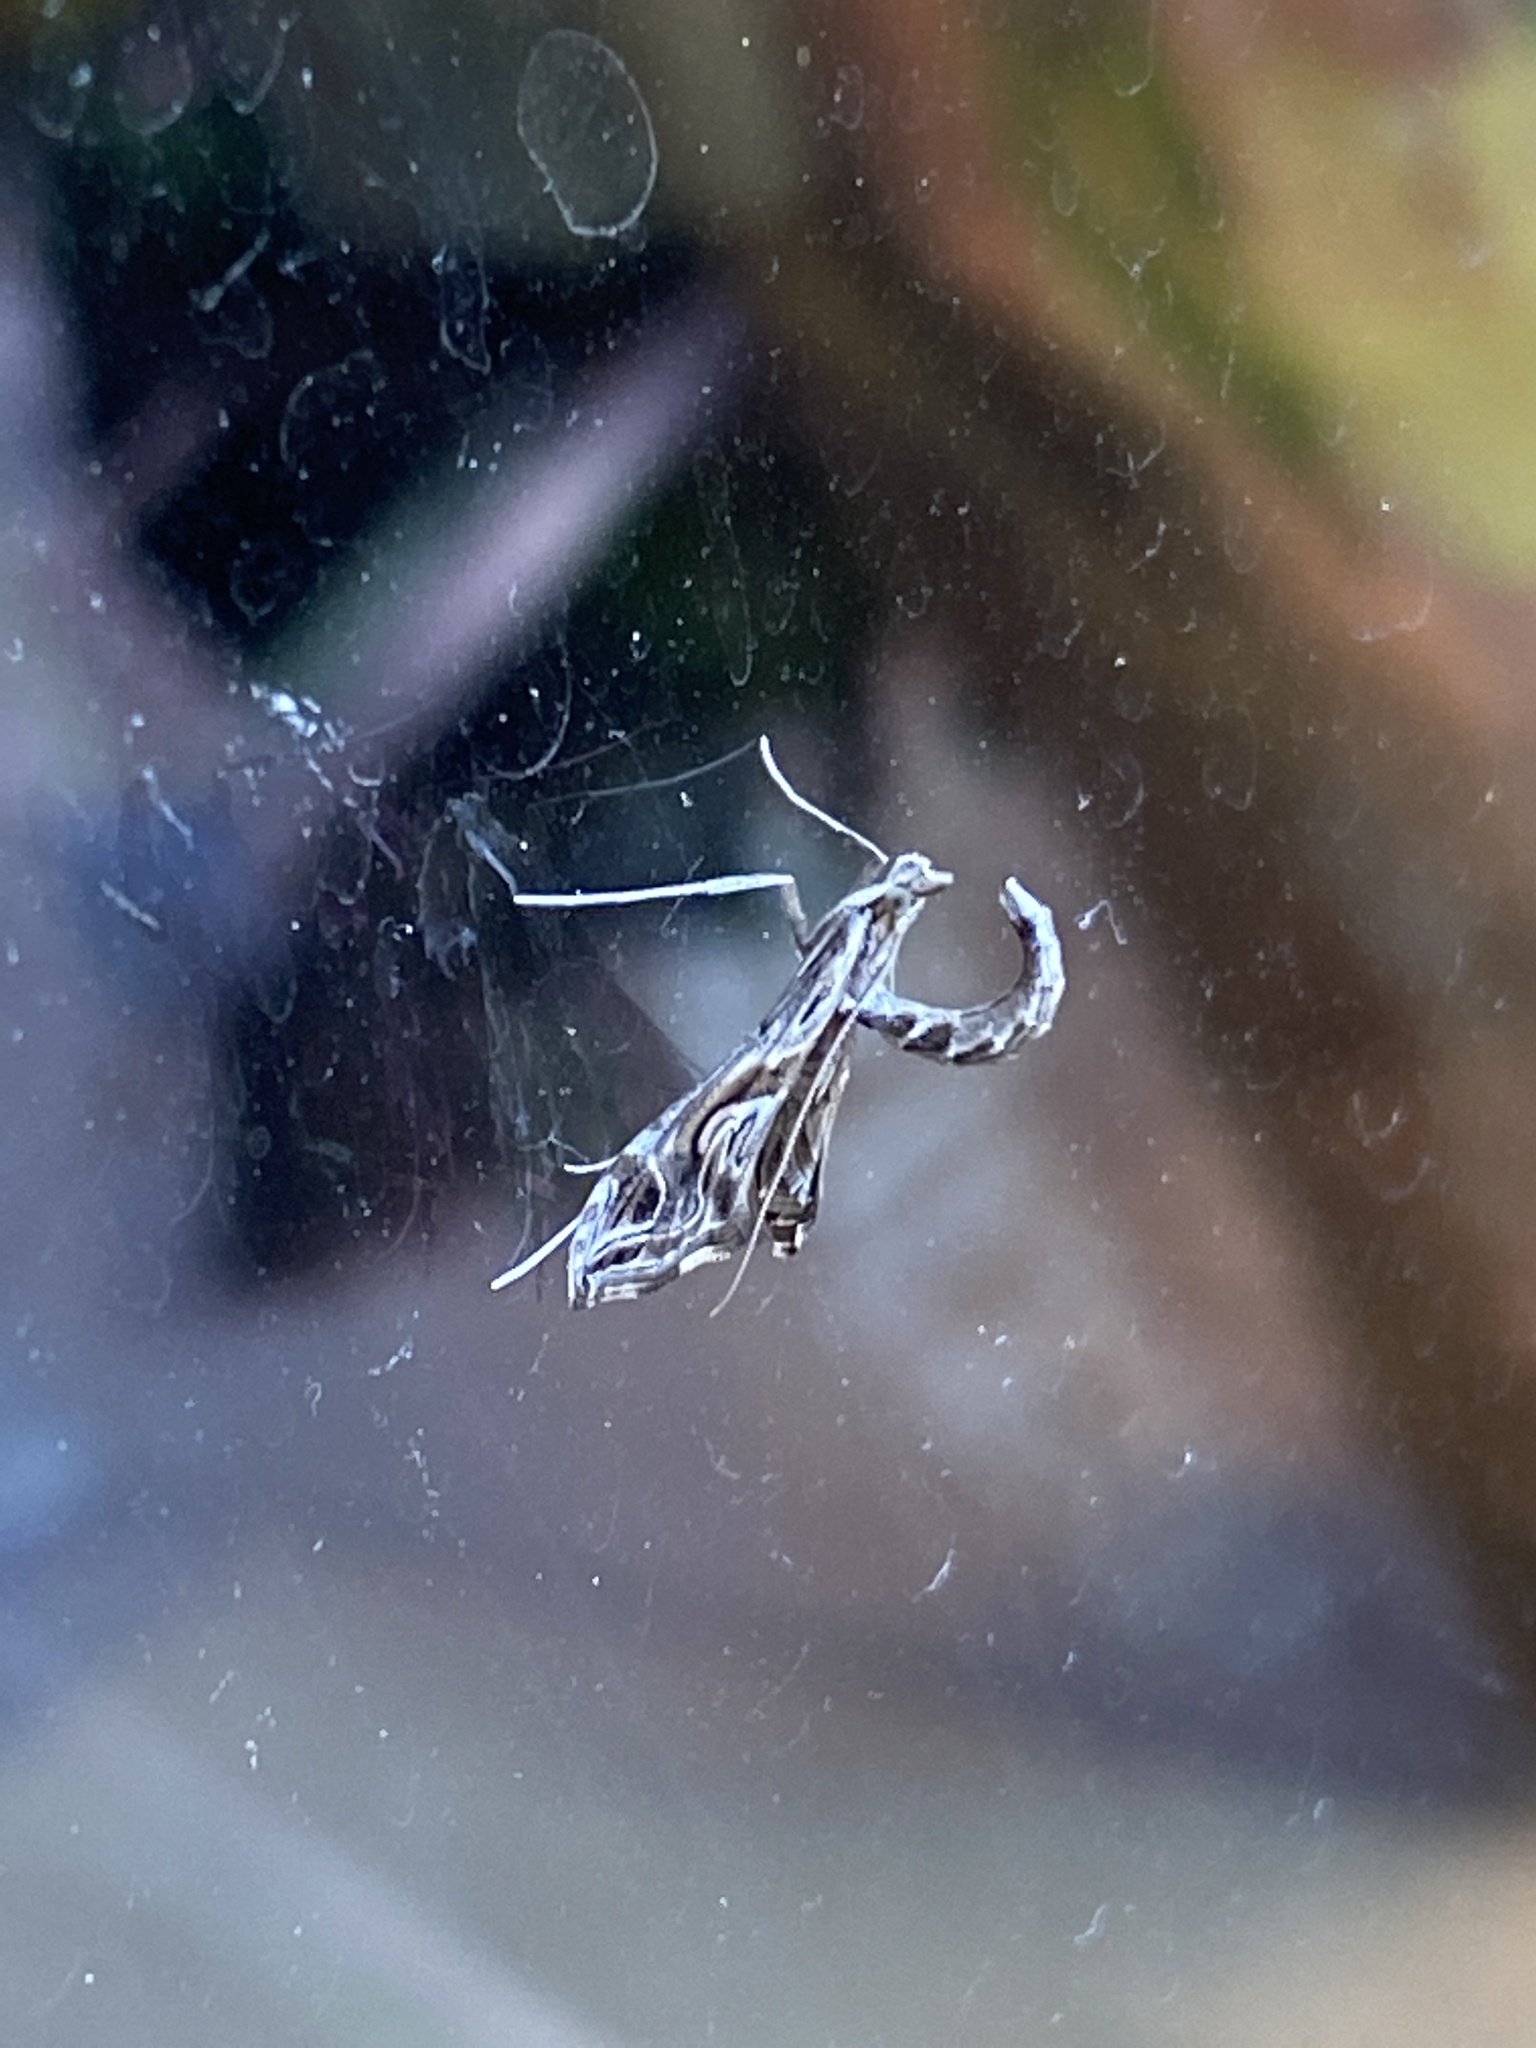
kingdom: Animalia
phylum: Arthropoda
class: Insecta
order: Lepidoptera
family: Crambidae
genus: Lineodes
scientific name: Lineodes integra
